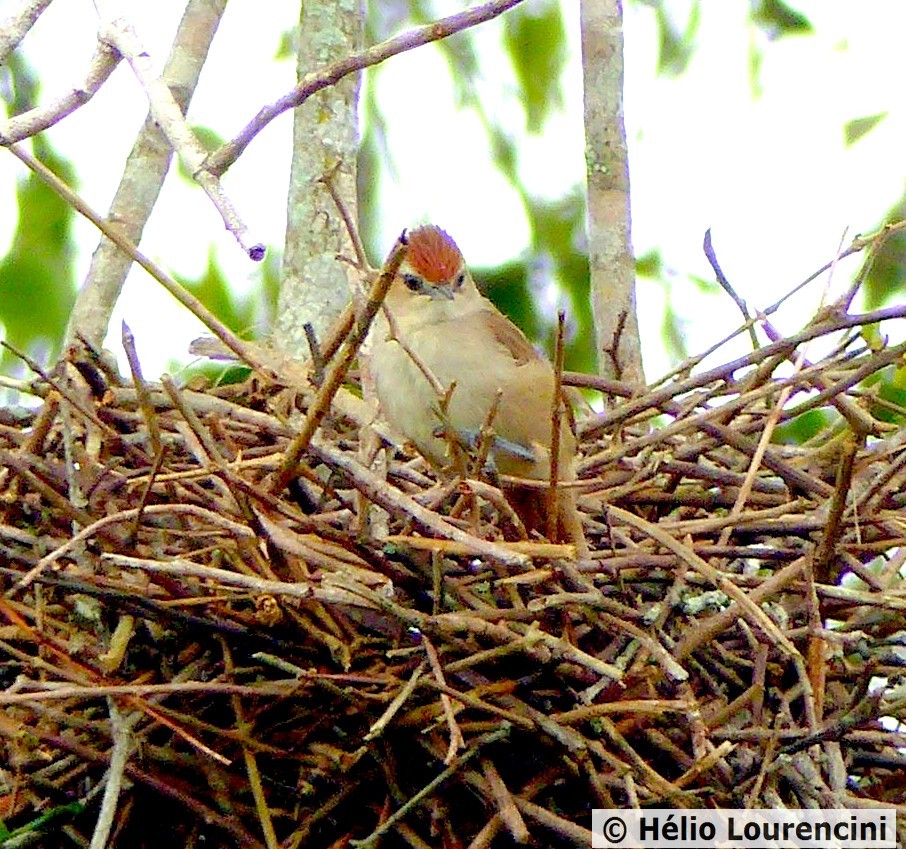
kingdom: Animalia
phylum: Chordata
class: Aves
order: Passeriformes
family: Furnariidae
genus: Phacellodomus
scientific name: Phacellodomus rufifrons
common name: Rufous-fronted thornbird
